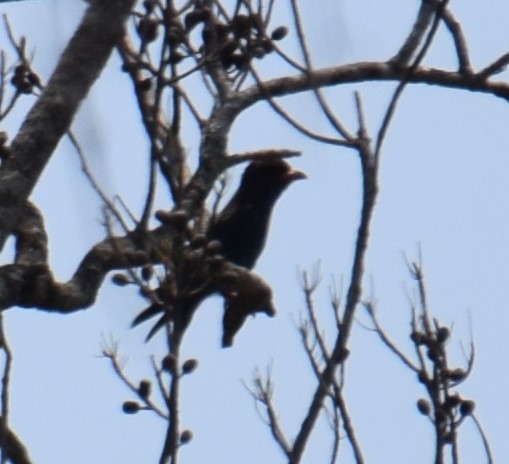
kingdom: Animalia
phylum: Chordata
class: Aves
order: Coraciiformes
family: Coraciidae
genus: Eurystomus
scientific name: Eurystomus orientalis
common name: Oriental dollarbird
